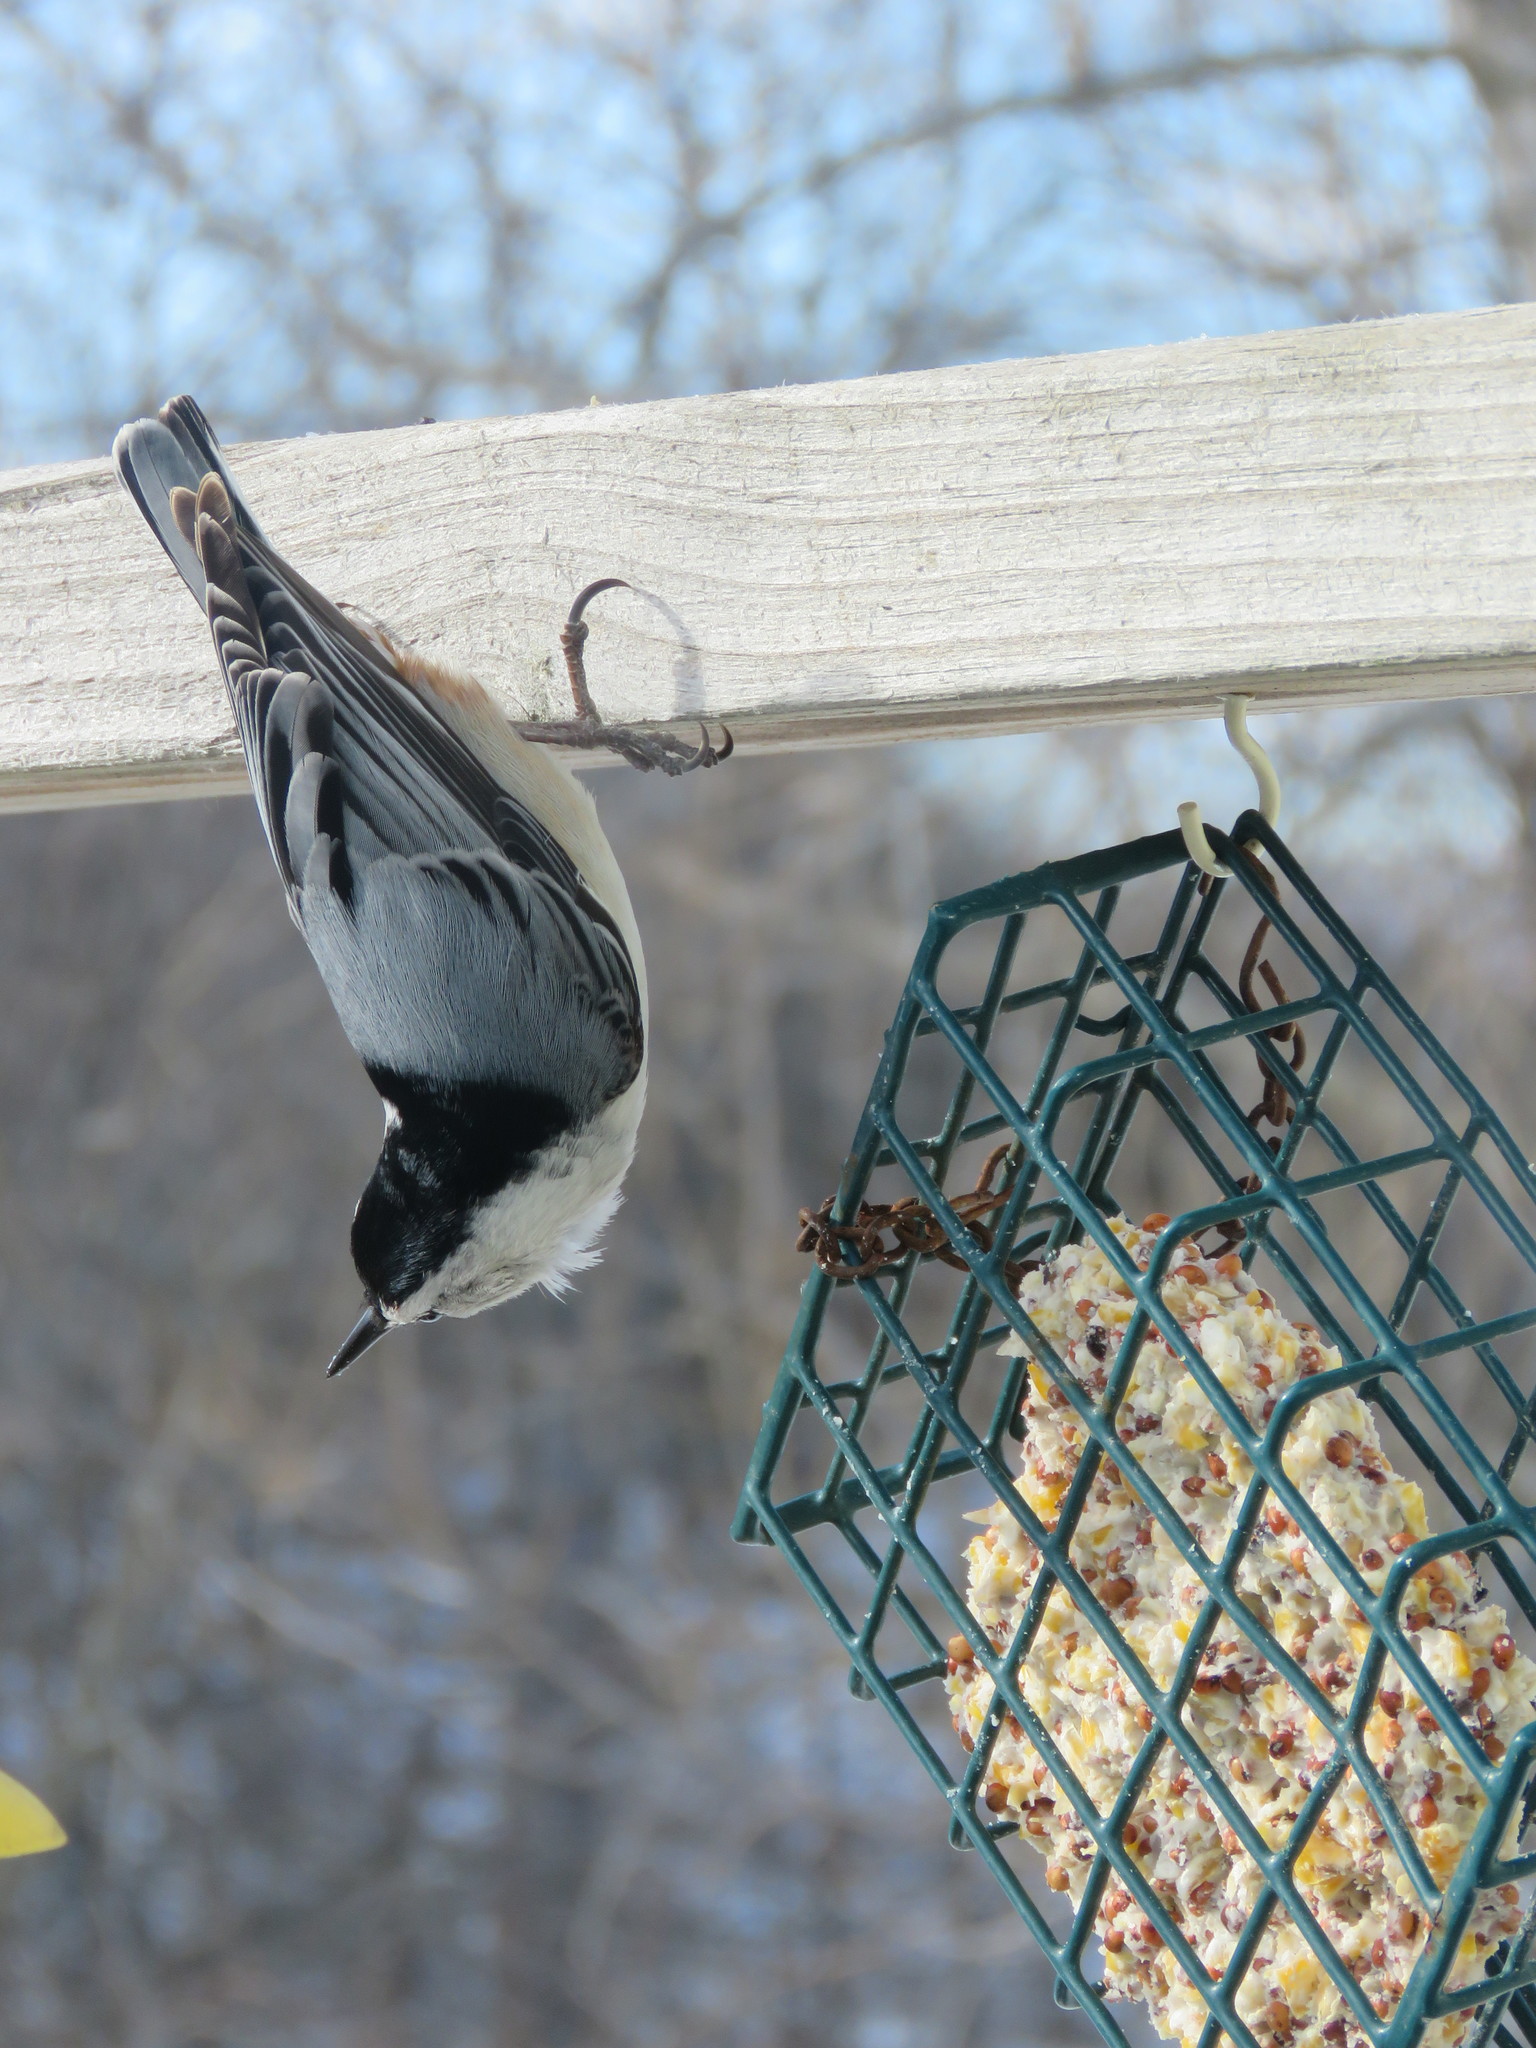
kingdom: Animalia
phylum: Chordata
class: Aves
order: Passeriformes
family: Sittidae
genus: Sitta
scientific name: Sitta carolinensis
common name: White-breasted nuthatch
